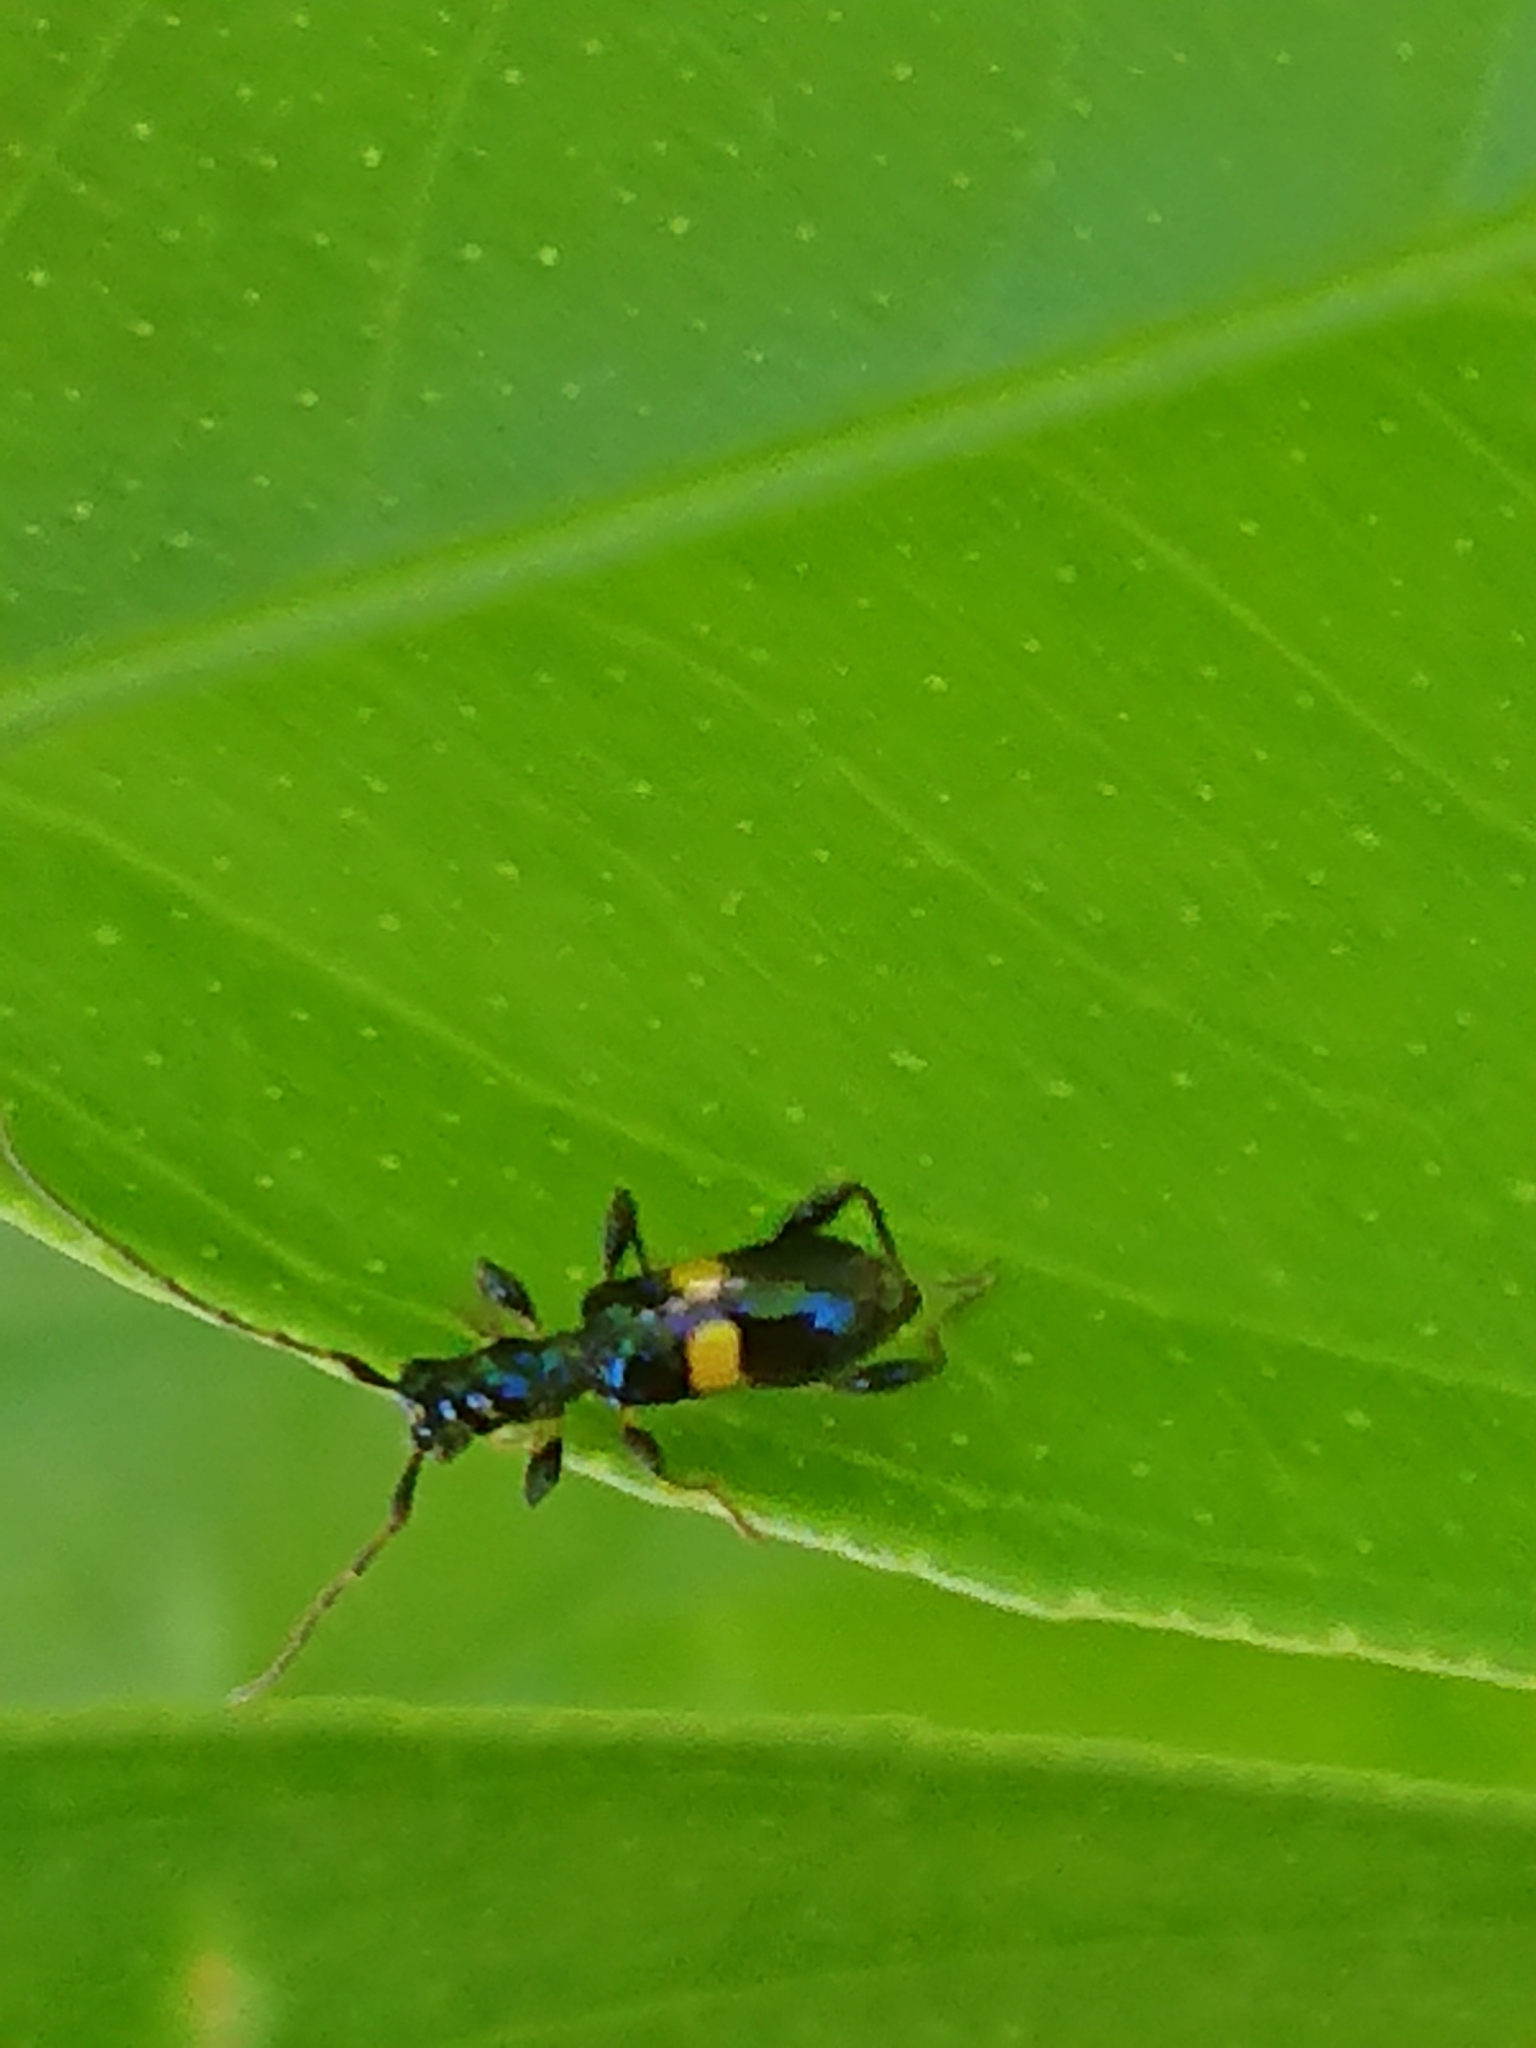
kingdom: Animalia
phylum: Arthropoda
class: Insecta
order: Coleoptera
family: Cerambycidae
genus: Zorion
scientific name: Zorion guttigerum
